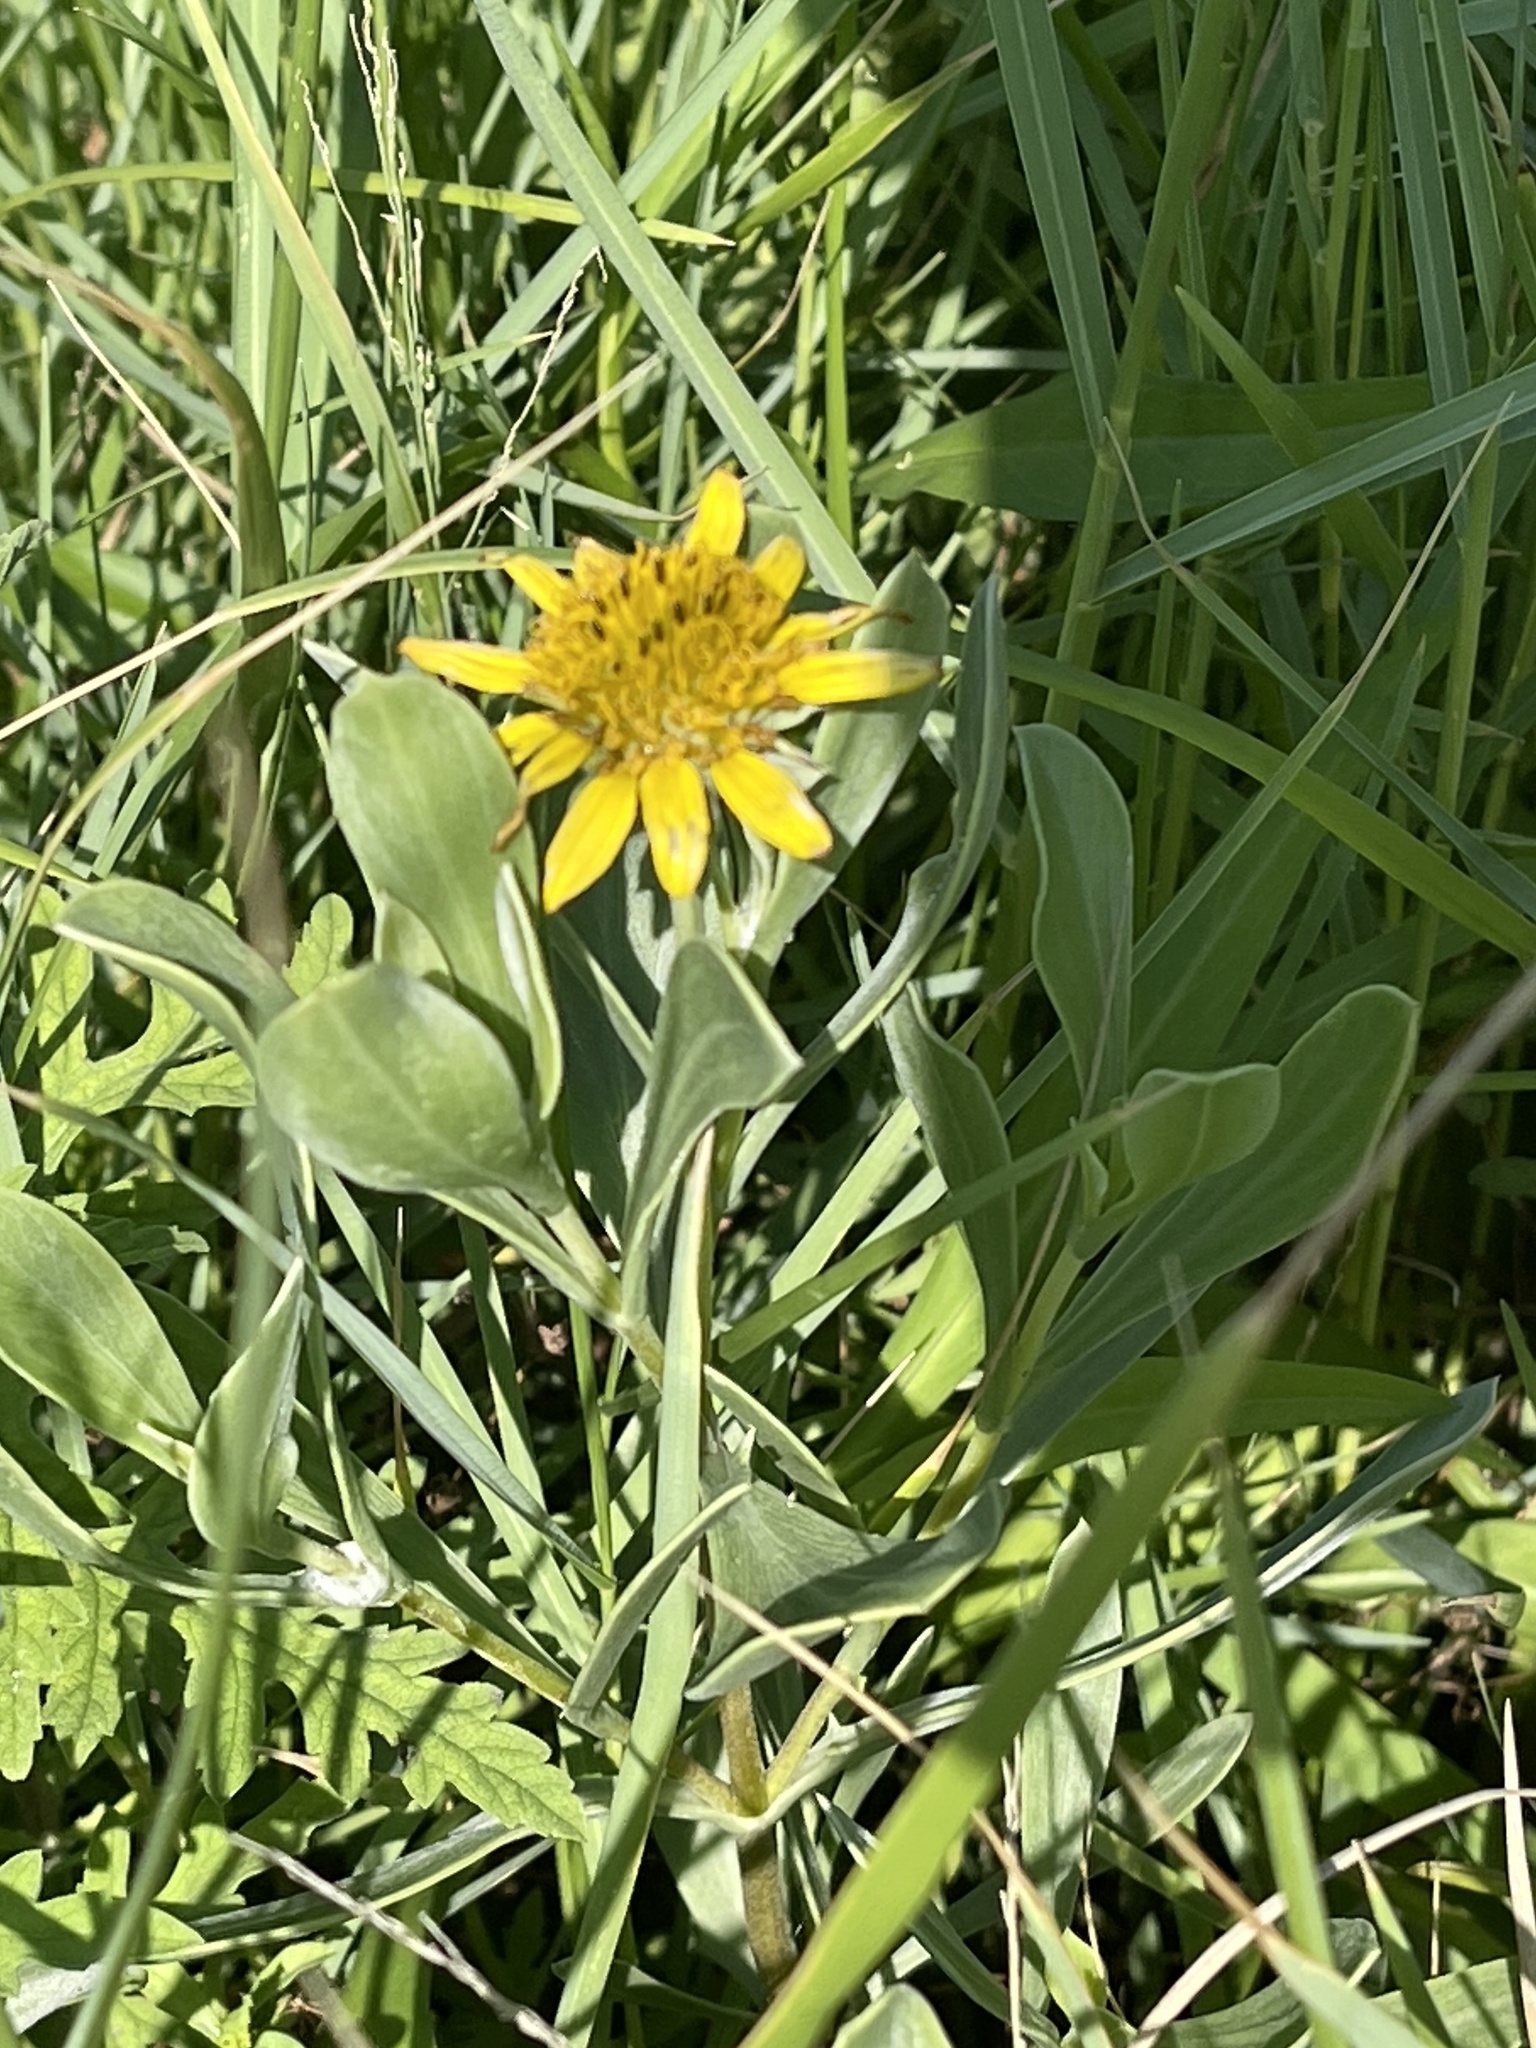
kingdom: Plantae
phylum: Tracheophyta
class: Magnoliopsida
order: Asterales
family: Asteraceae
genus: Borrichia
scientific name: Borrichia frutescens
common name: Sea oxeye
